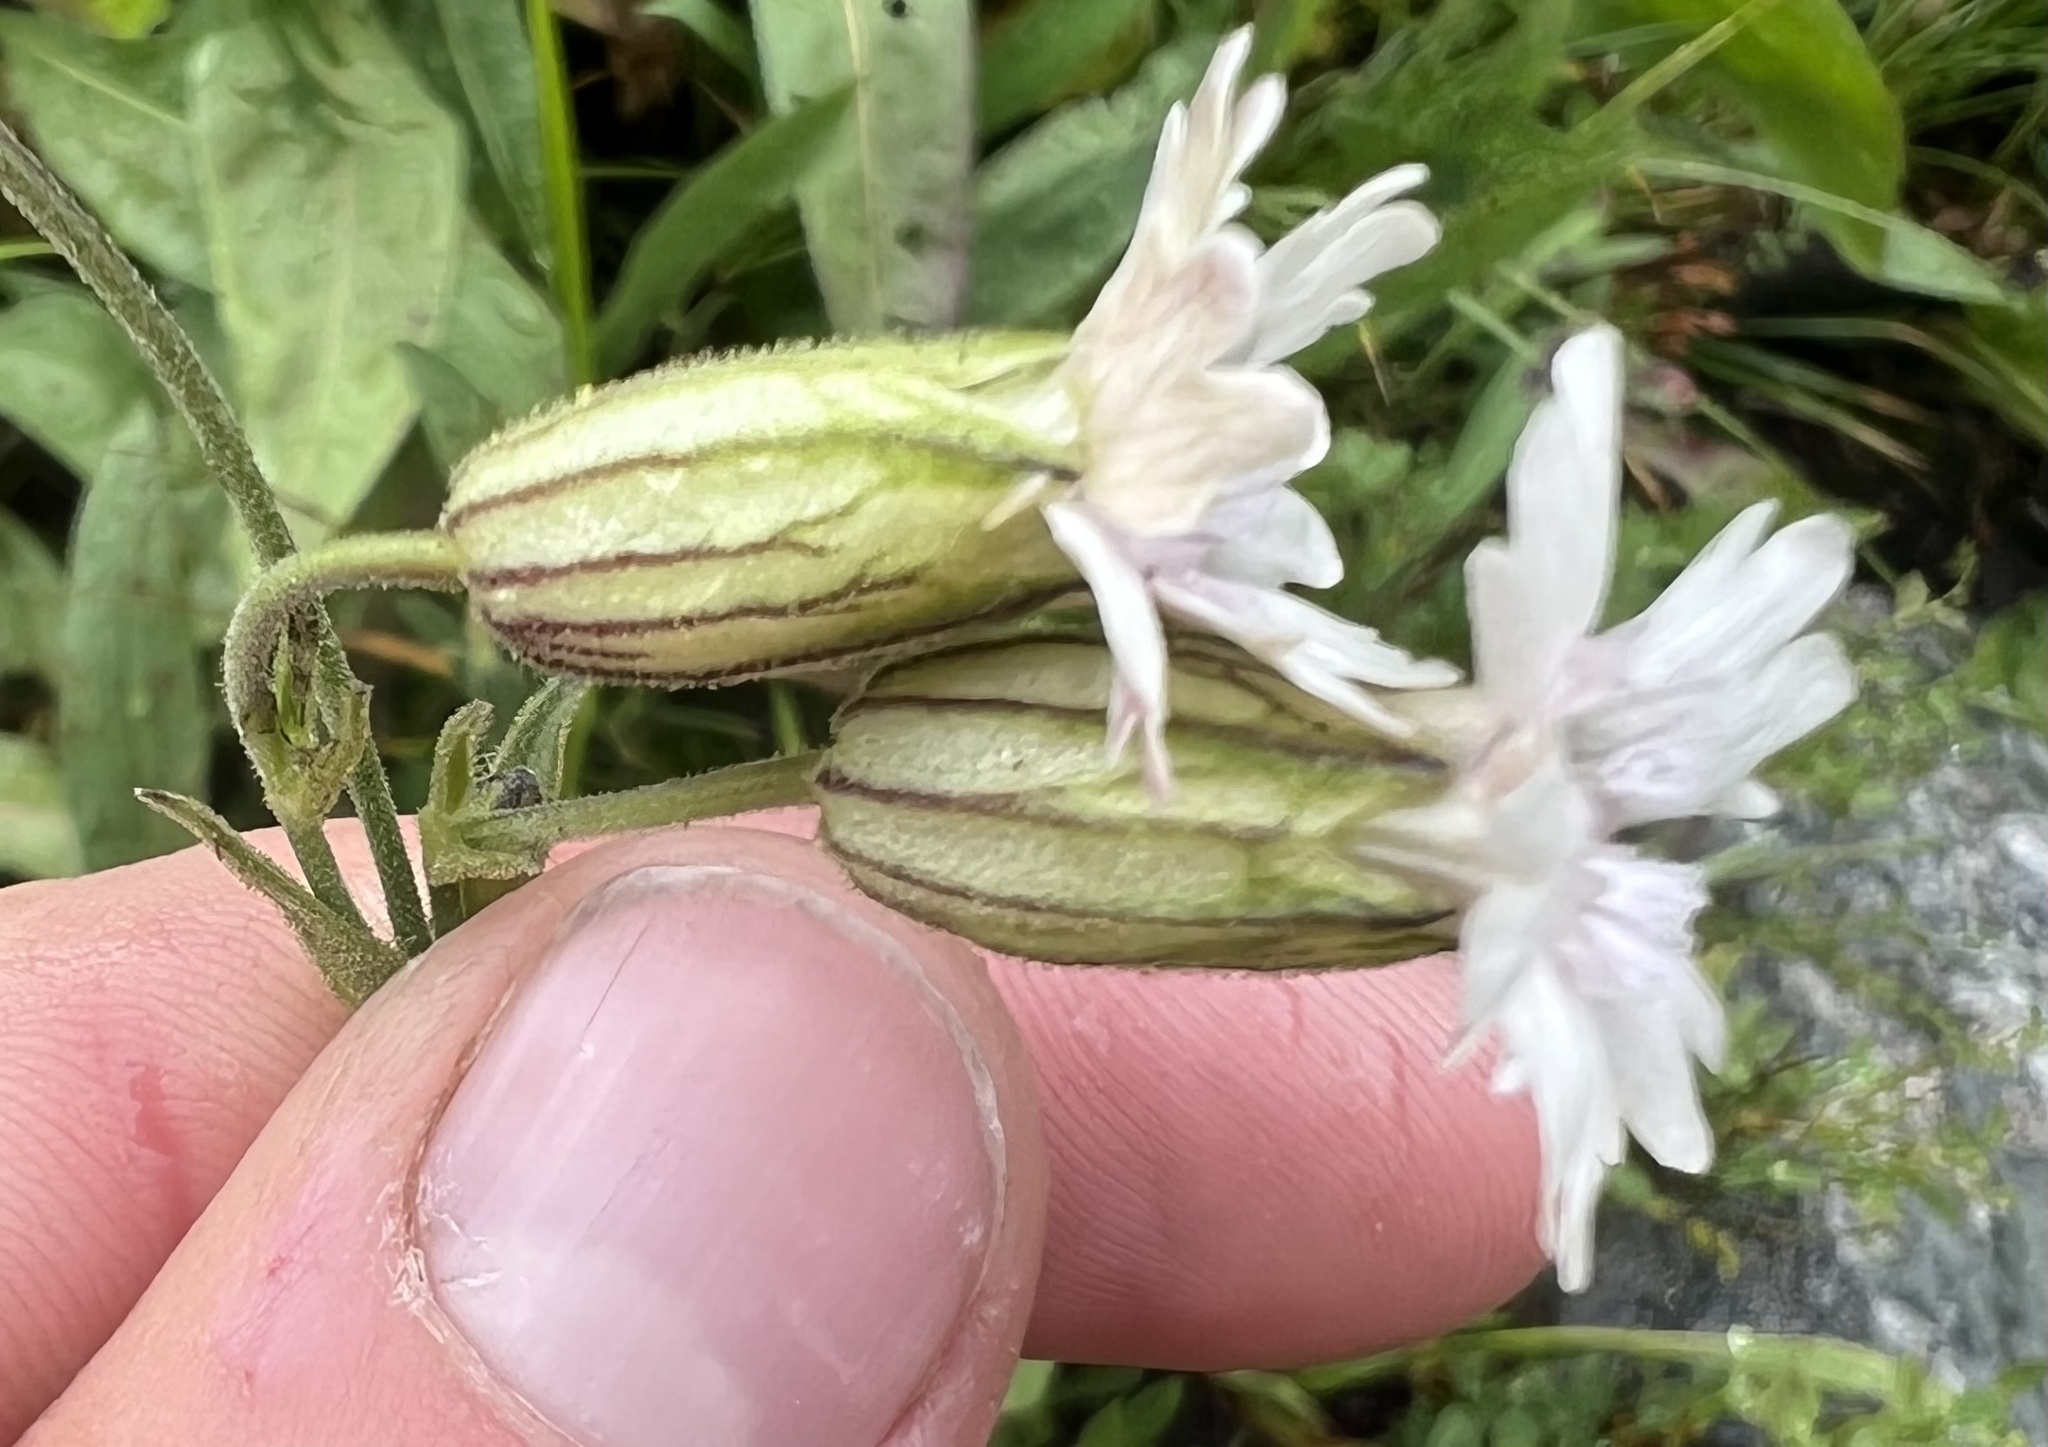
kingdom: Plantae
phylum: Tracheophyta
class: Magnoliopsida
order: Caryophyllales
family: Caryophyllaceae
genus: Silene
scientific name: Silene latifolia
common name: White campion
